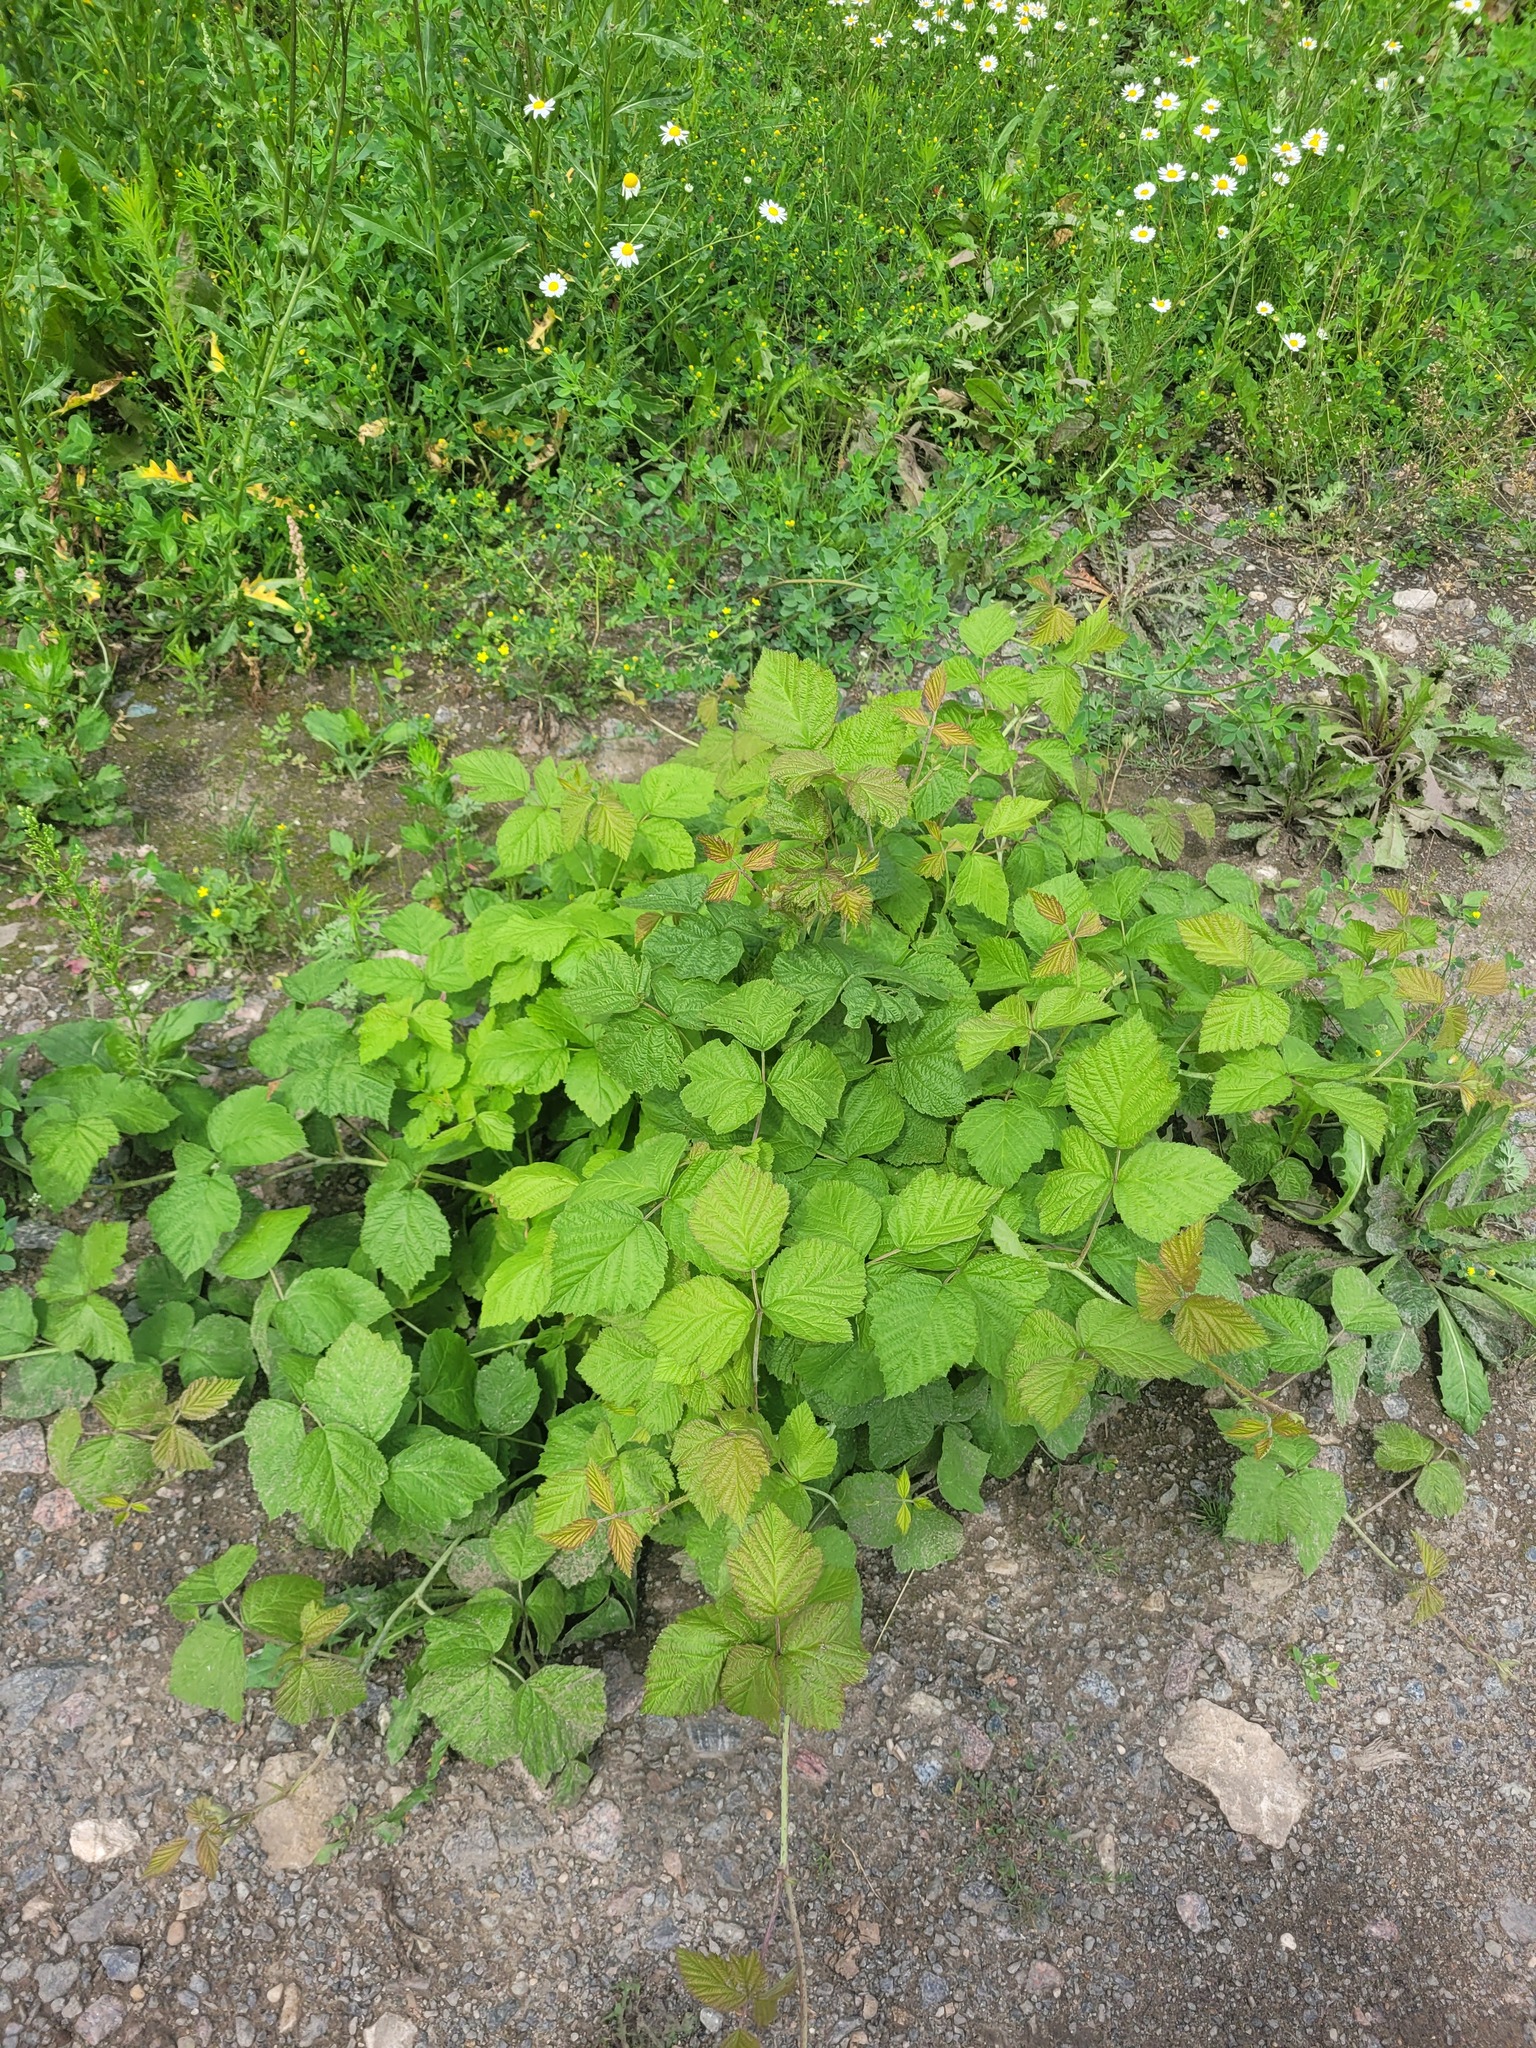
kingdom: Plantae
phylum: Tracheophyta
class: Magnoliopsida
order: Rosales
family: Rosaceae
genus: Rubus
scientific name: Rubus caesius
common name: Dewberry
